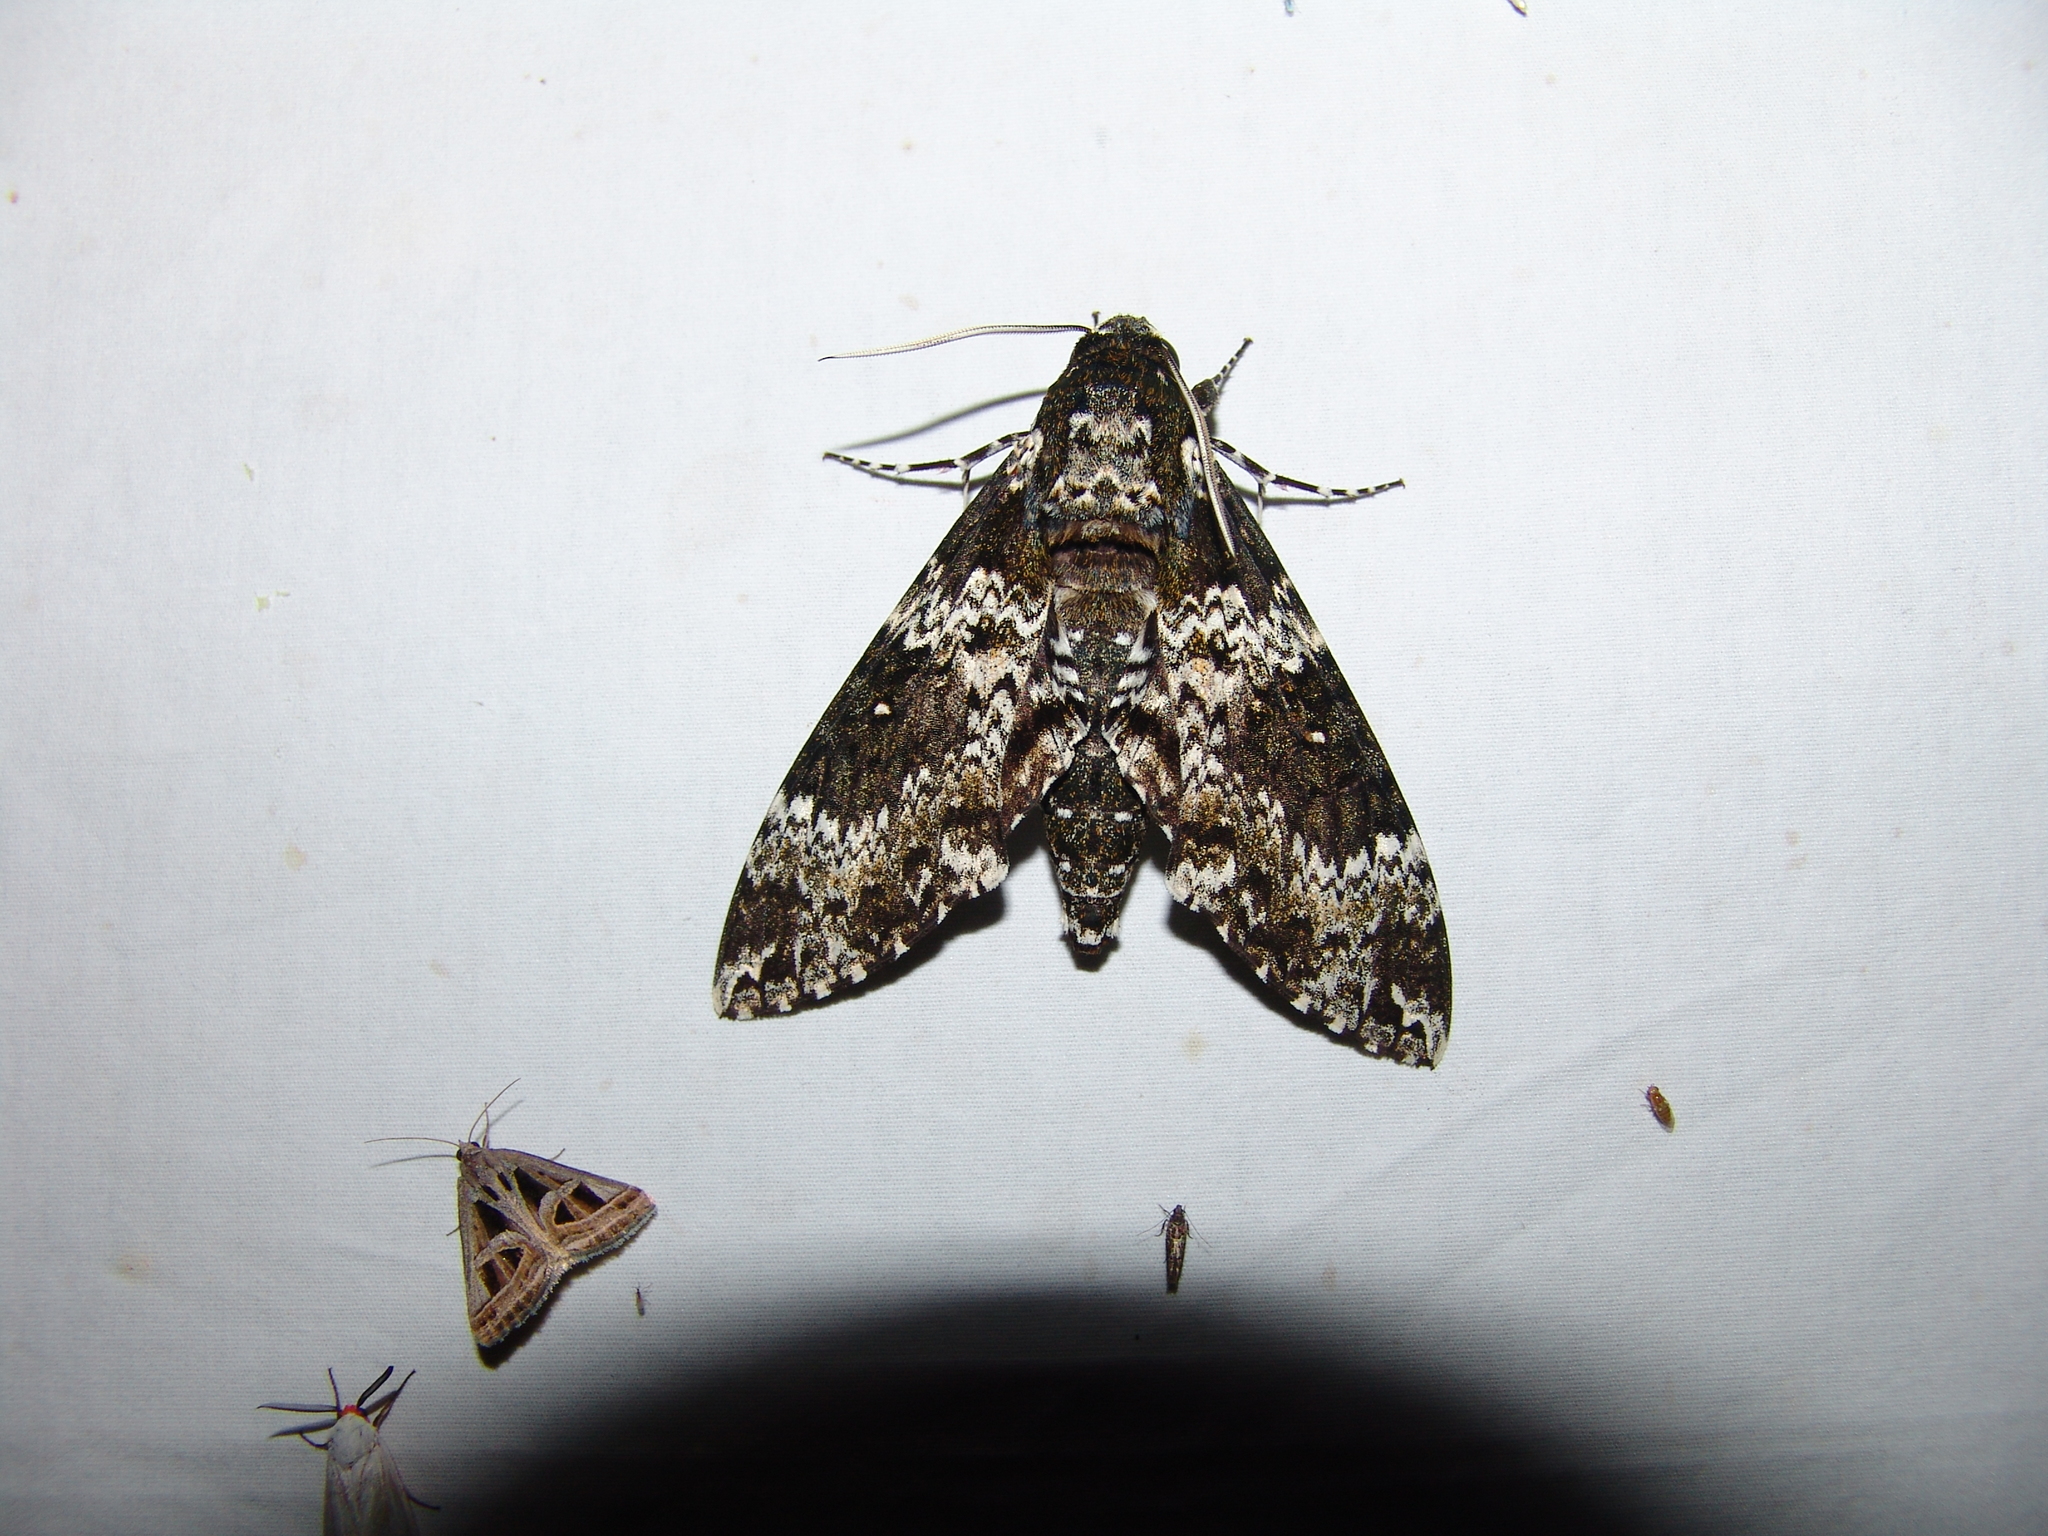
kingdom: Animalia
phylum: Arthropoda
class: Insecta
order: Lepidoptera
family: Sphingidae
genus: Manduca
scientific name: Manduca rustica
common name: Rustic sphinx
